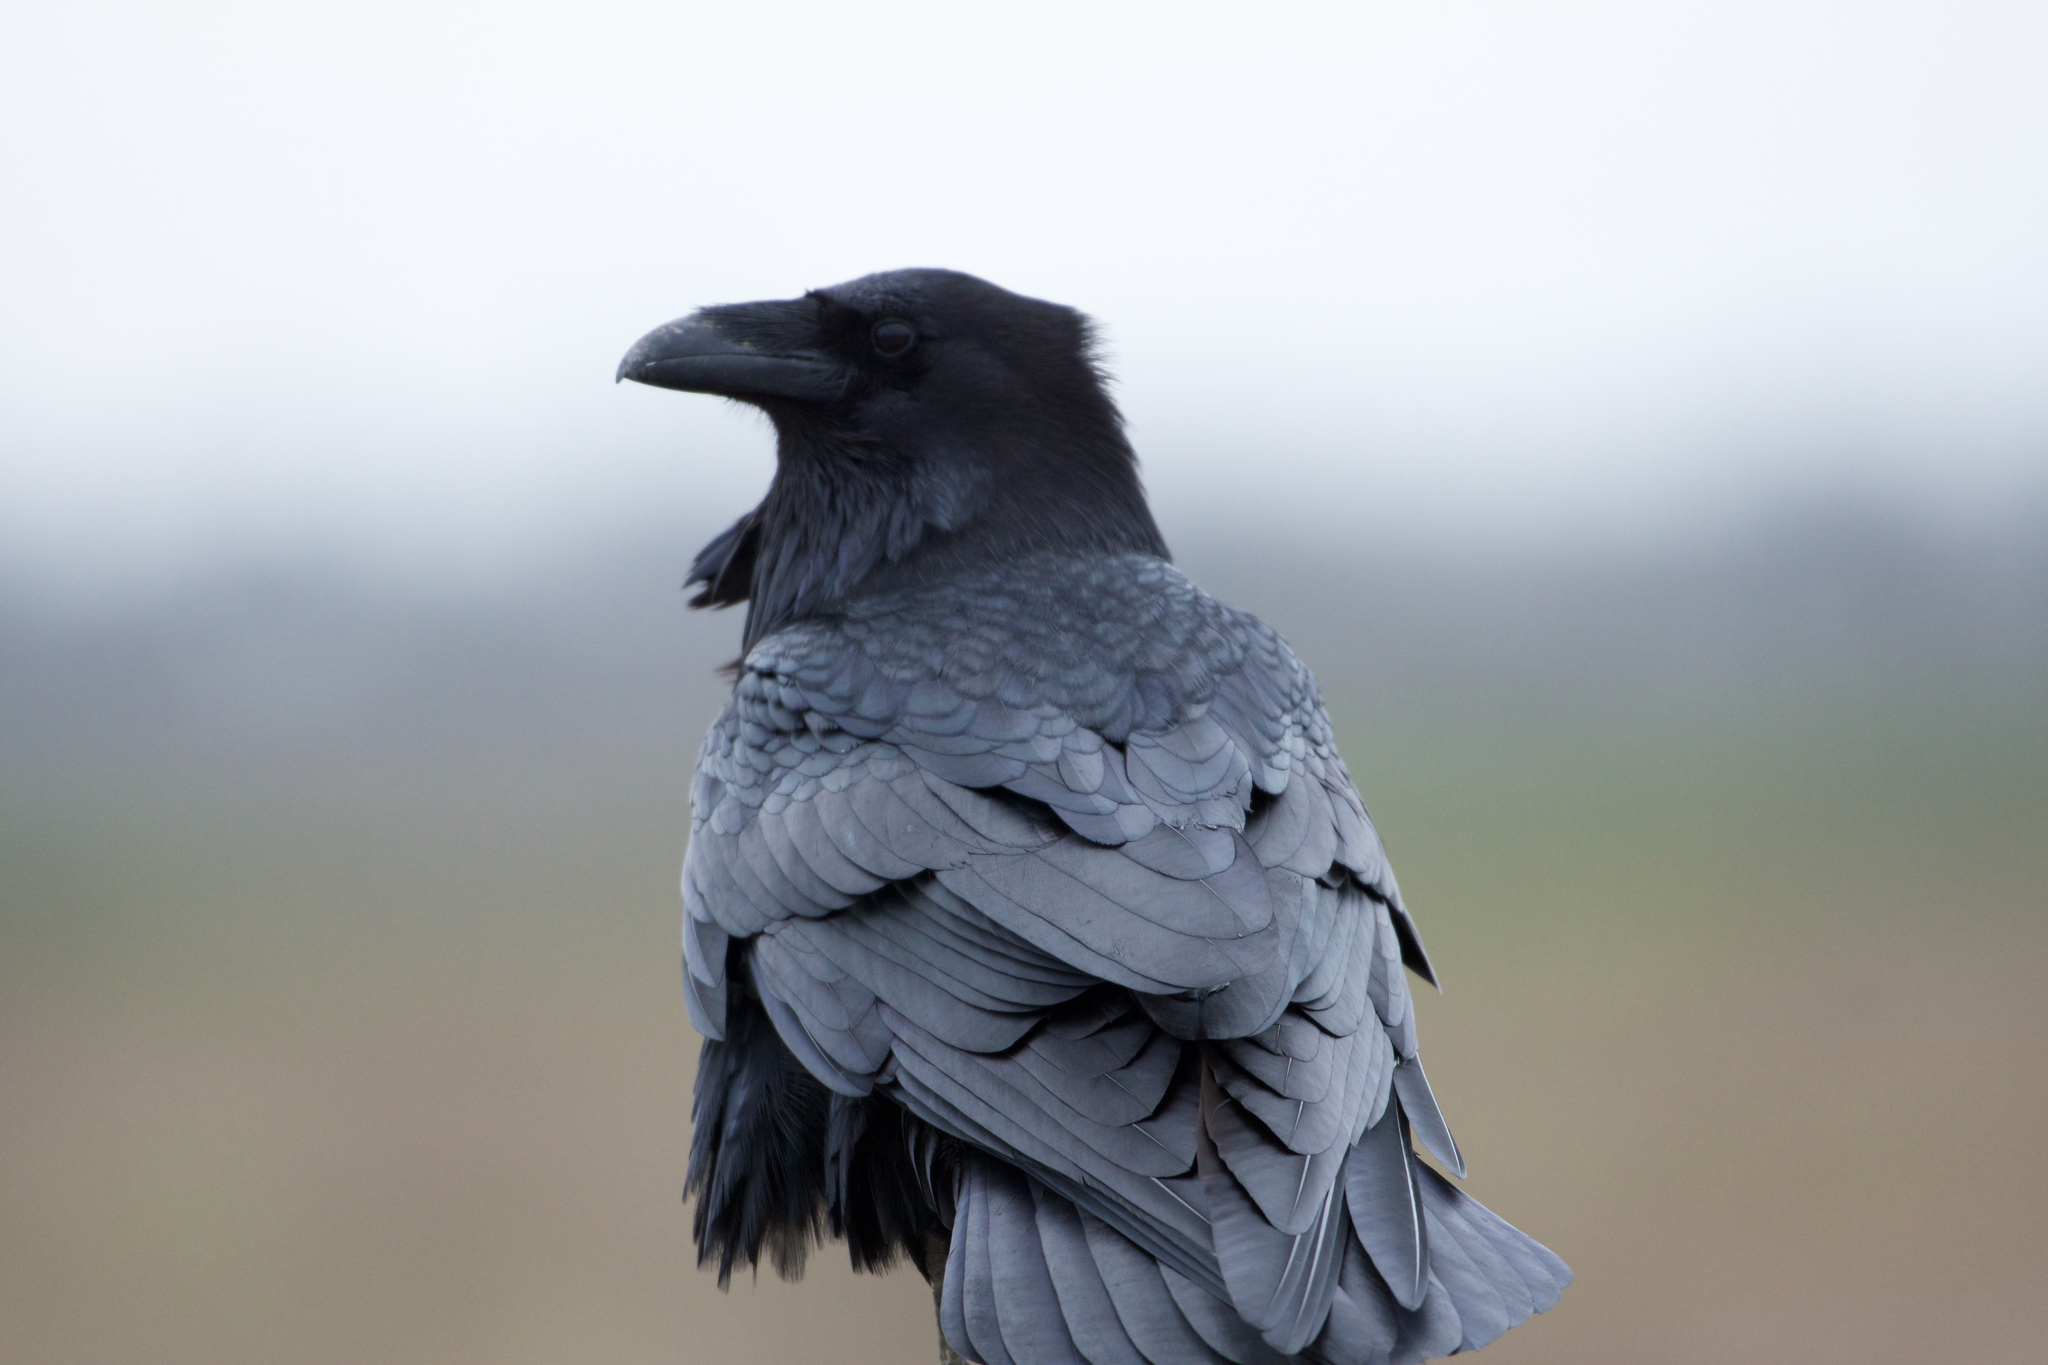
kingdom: Animalia
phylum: Chordata
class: Aves
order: Passeriformes
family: Corvidae
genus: Corvus
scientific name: Corvus corax
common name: Common raven
